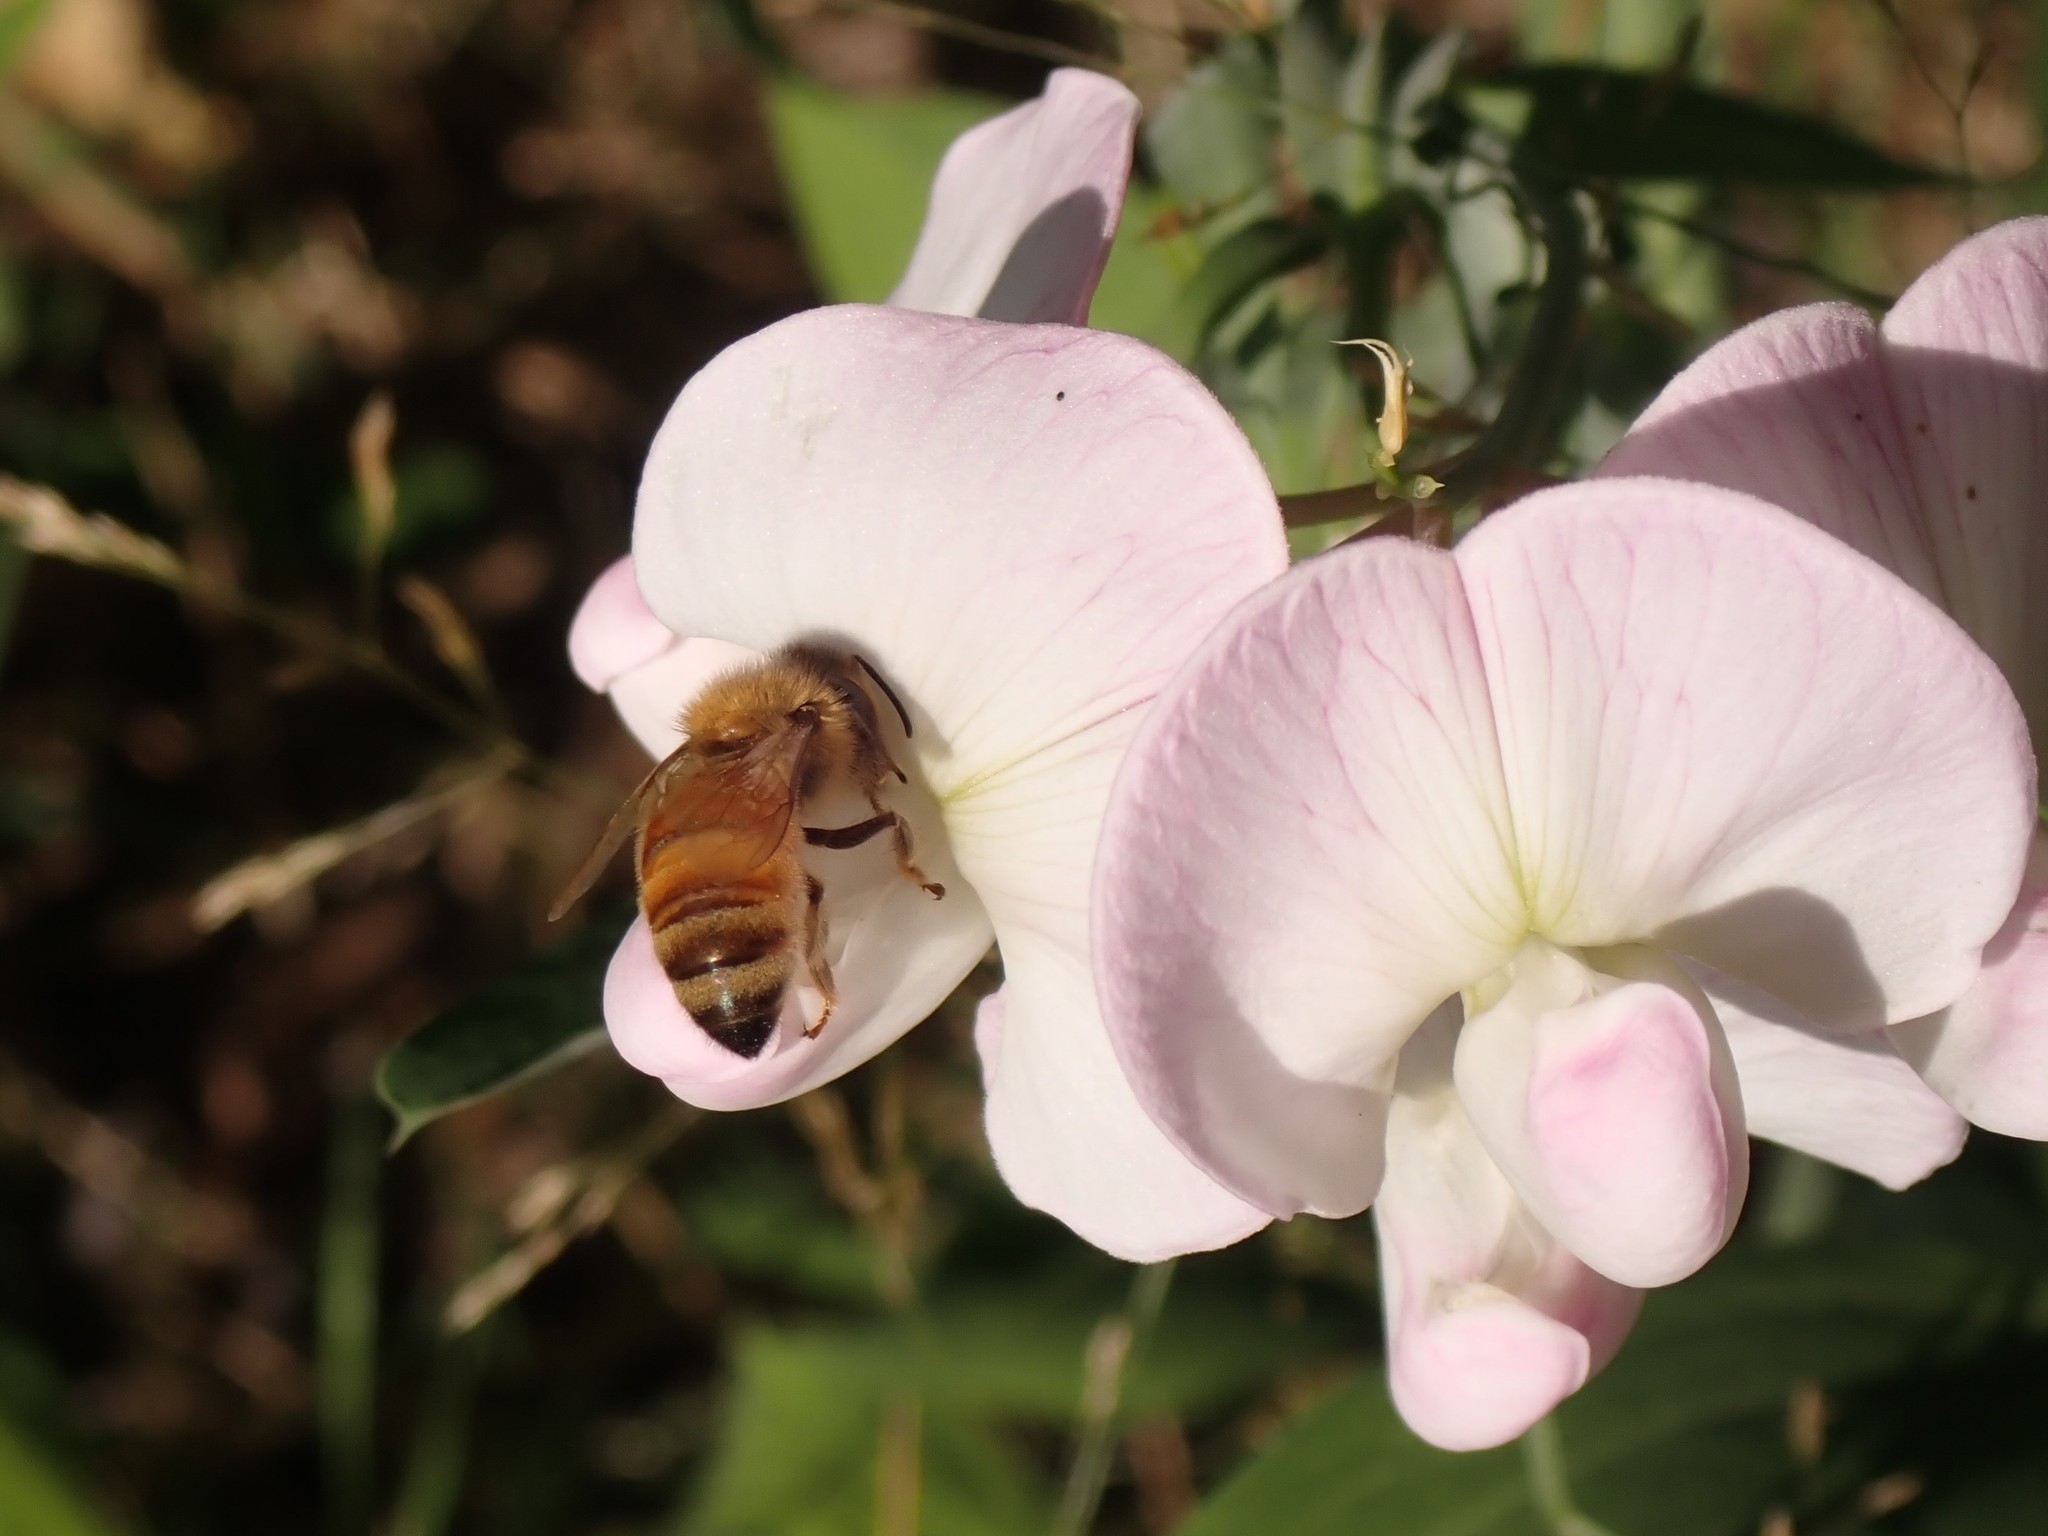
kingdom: Animalia
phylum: Arthropoda
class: Insecta
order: Hymenoptera
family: Apidae
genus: Apis
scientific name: Apis mellifera
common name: Honey bee
